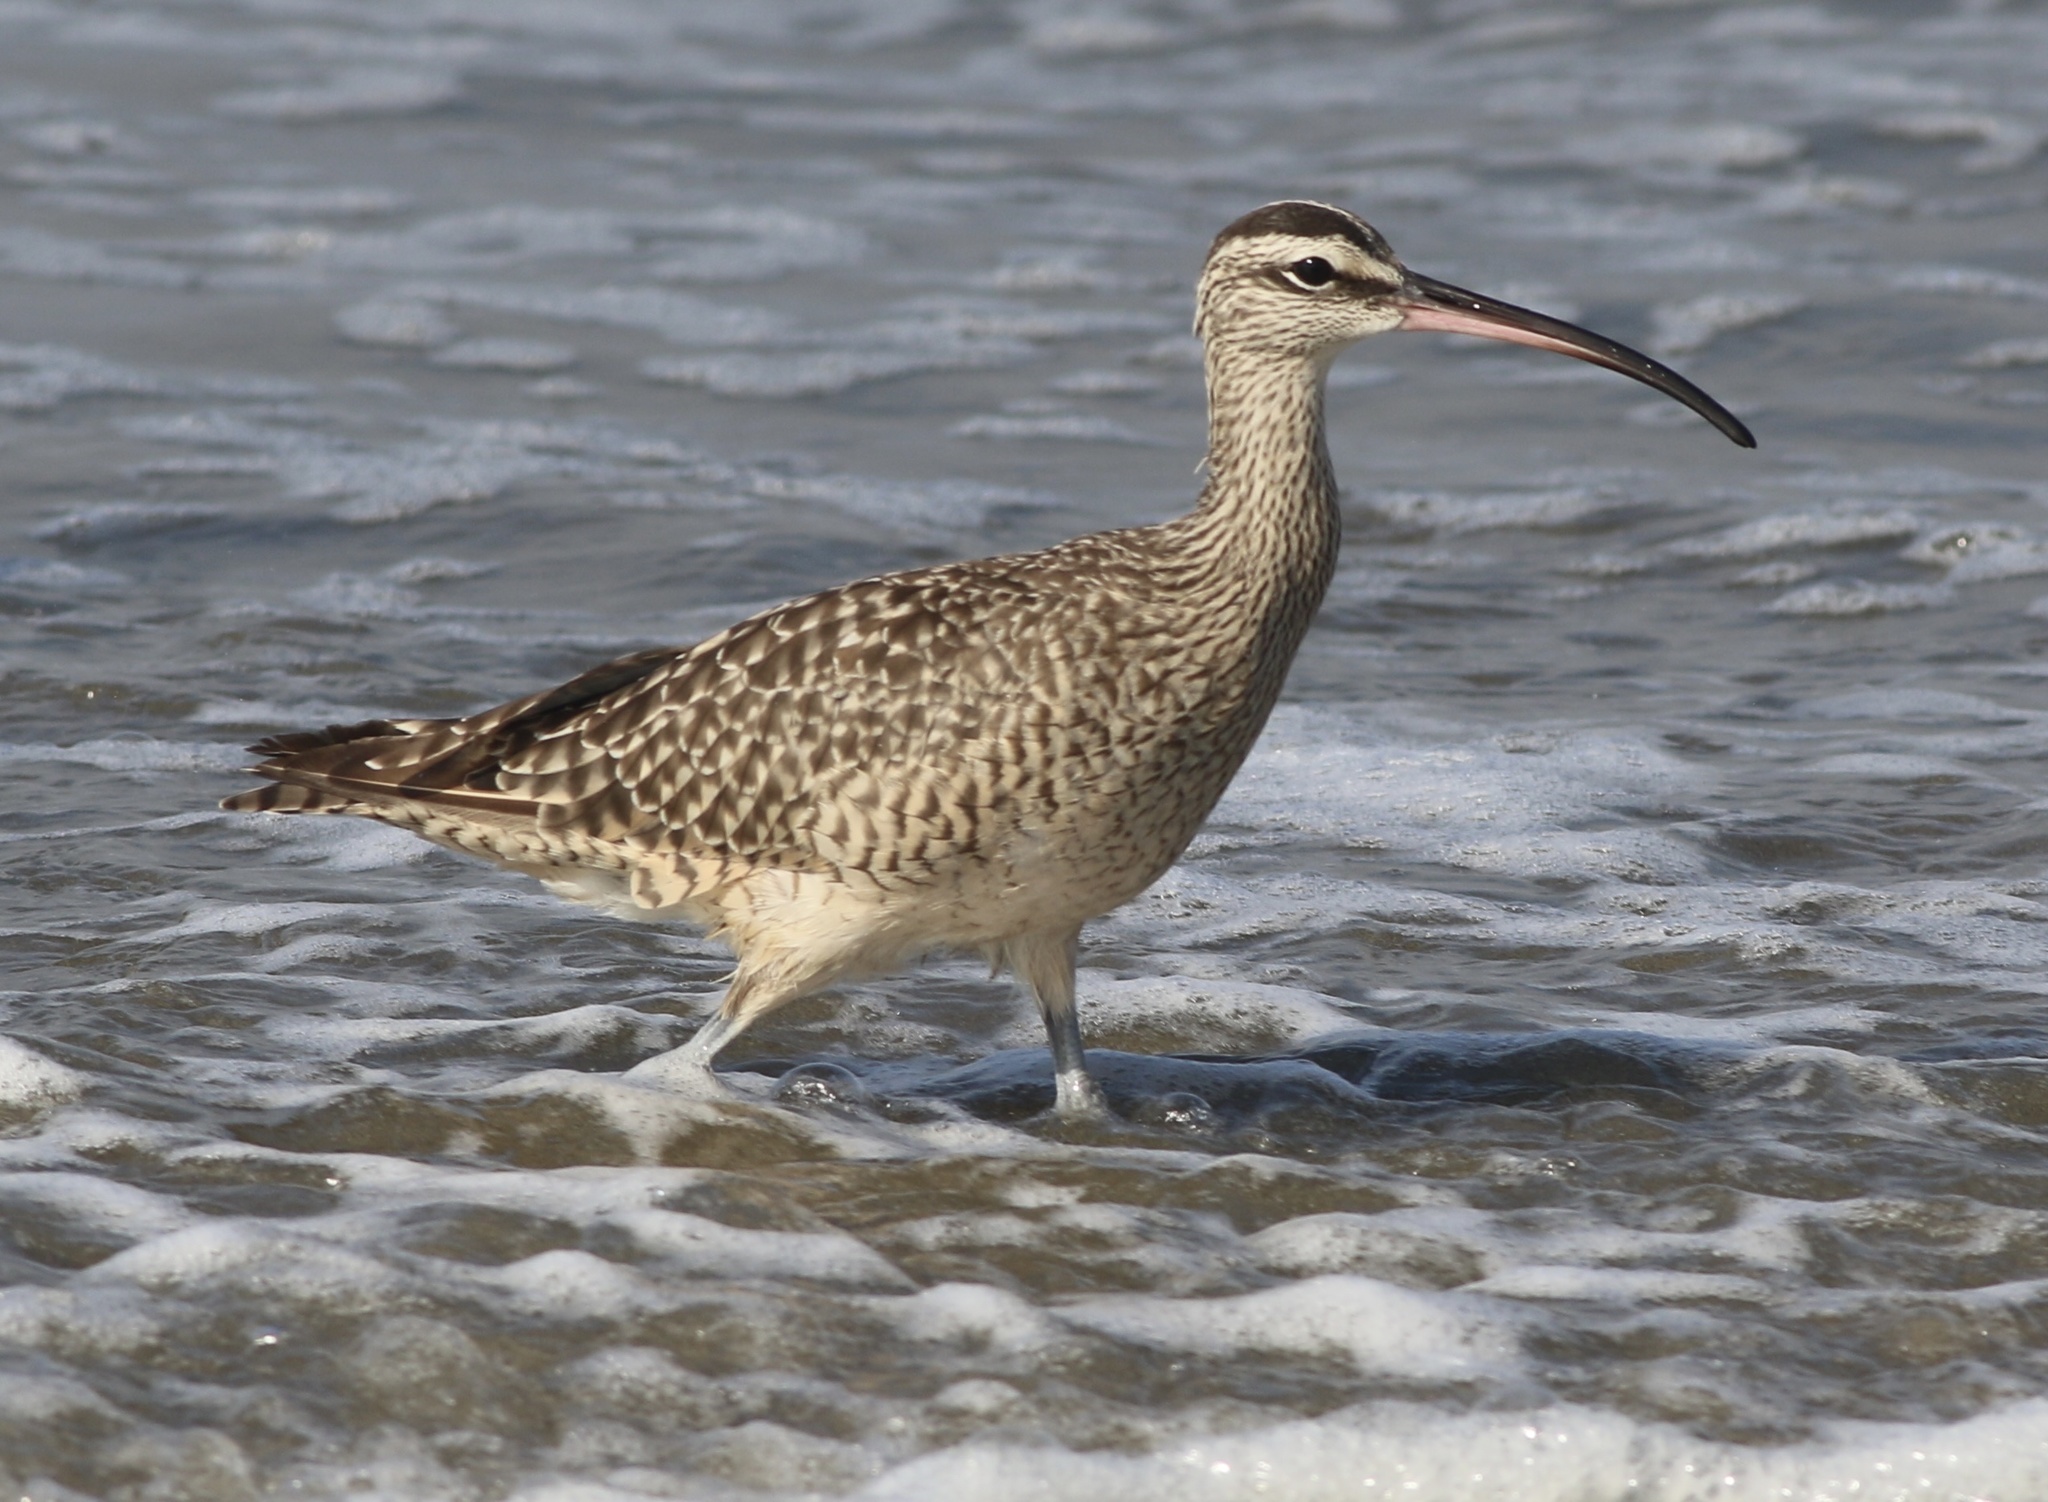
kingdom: Animalia
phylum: Chordata
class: Aves
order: Charadriiformes
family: Scolopacidae
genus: Numenius
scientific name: Numenius phaeopus
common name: Whimbrel
